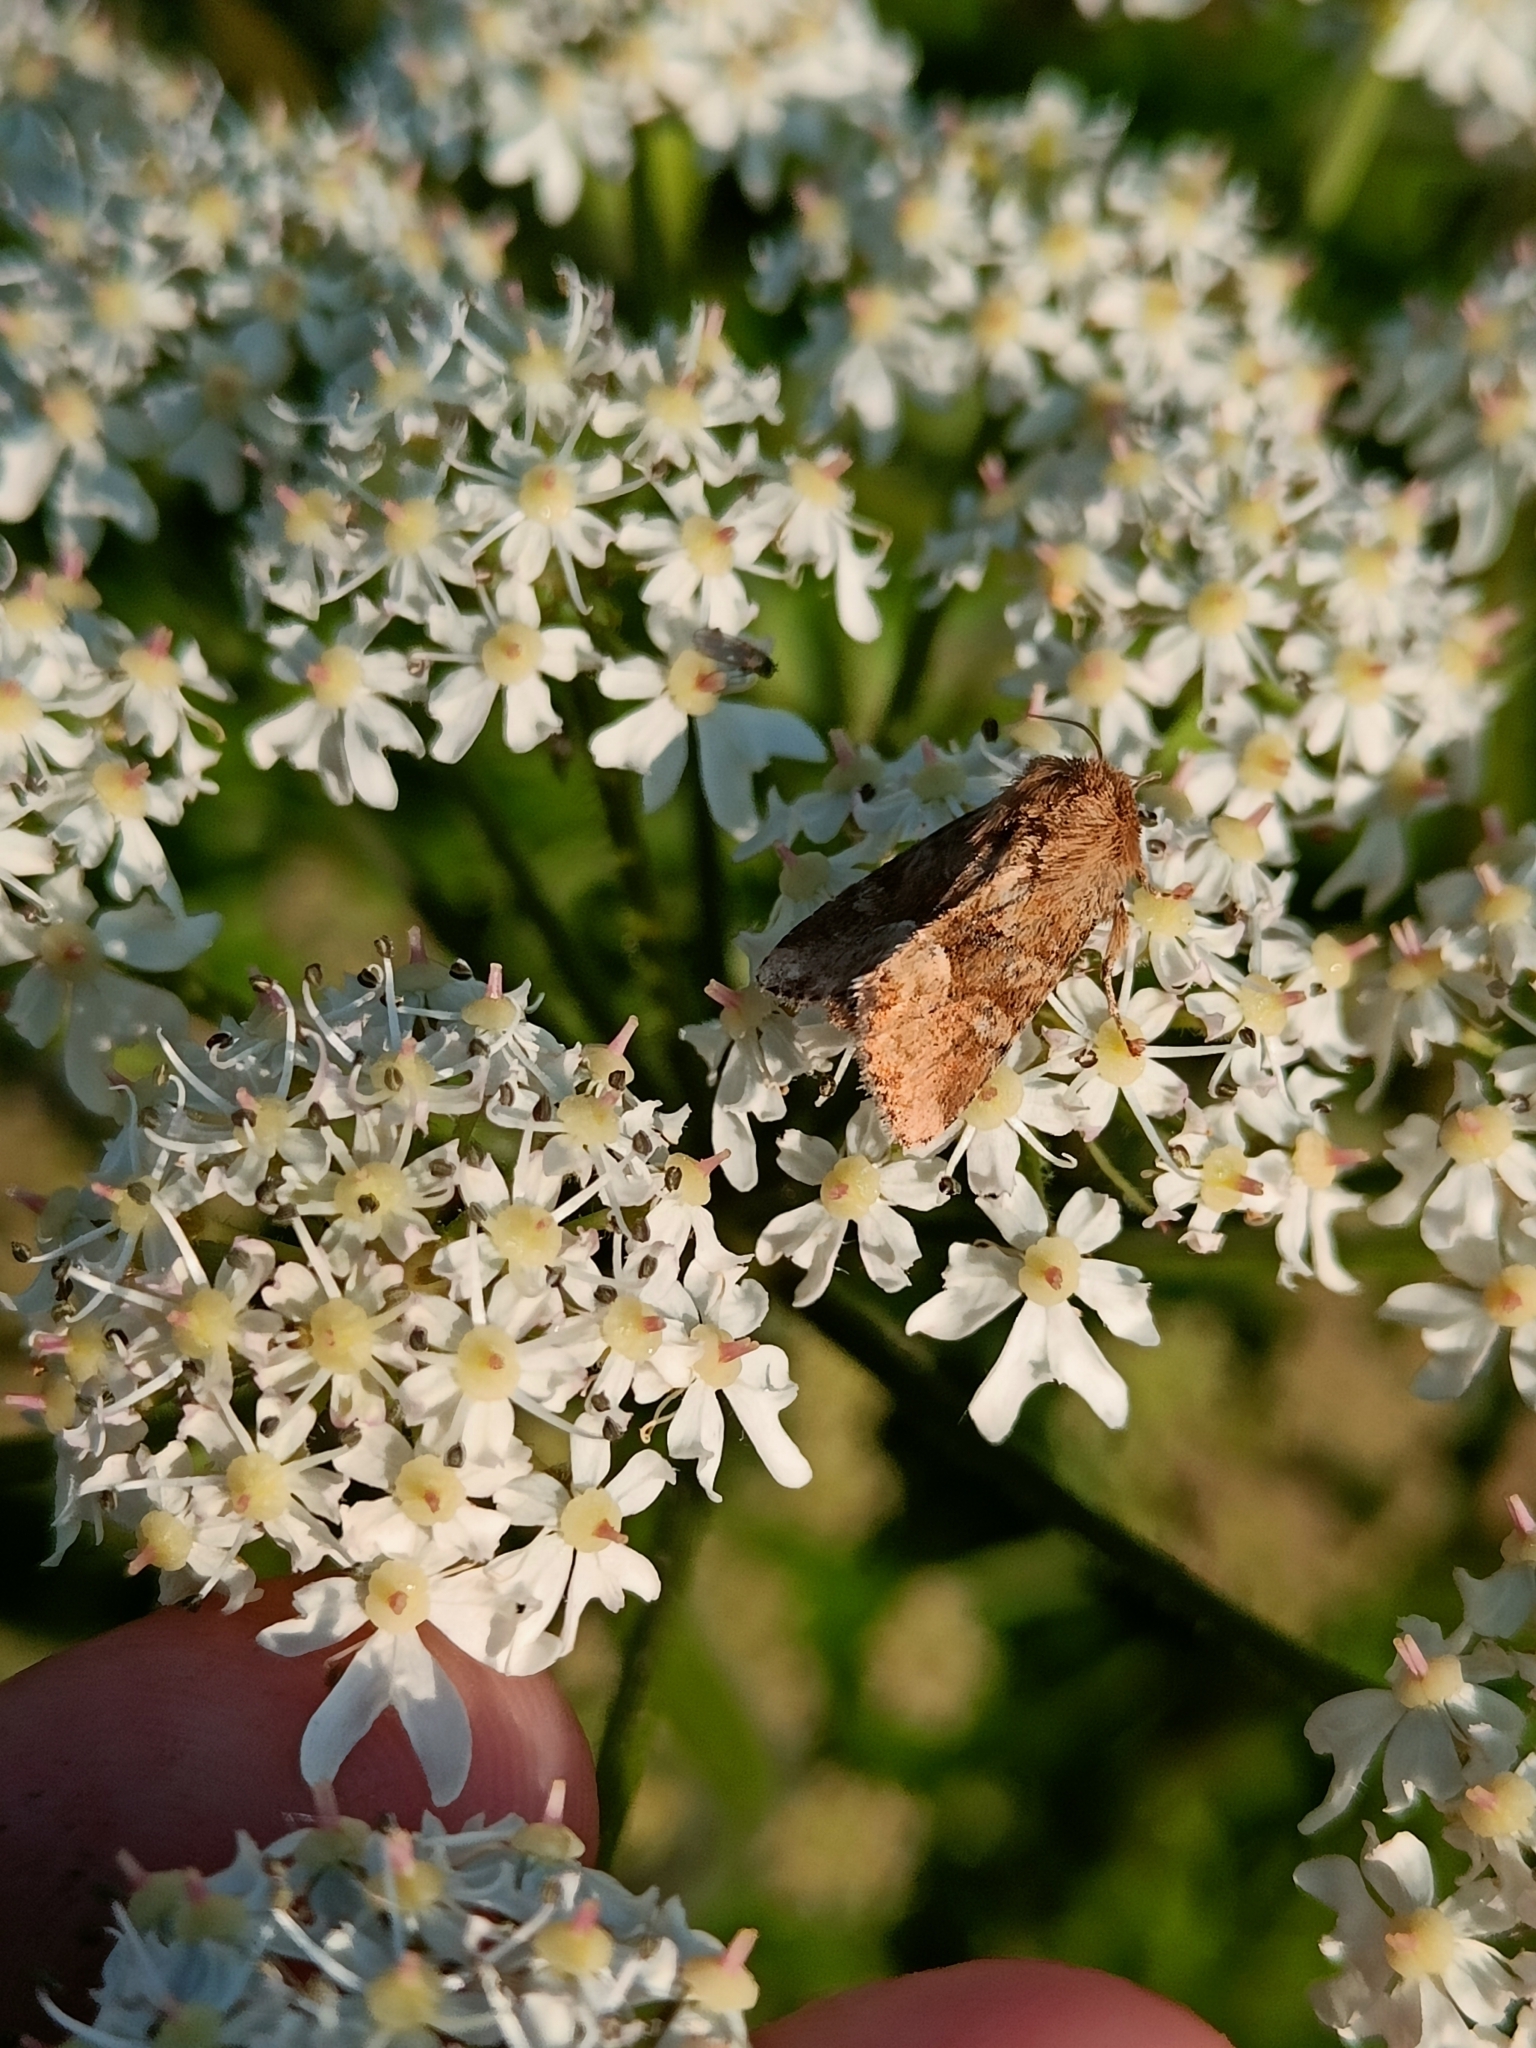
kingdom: Animalia
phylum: Arthropoda
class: Insecta
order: Lepidoptera
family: Noctuidae
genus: Oligia
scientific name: Oligia fasciuncula
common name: Middle-barred minor
